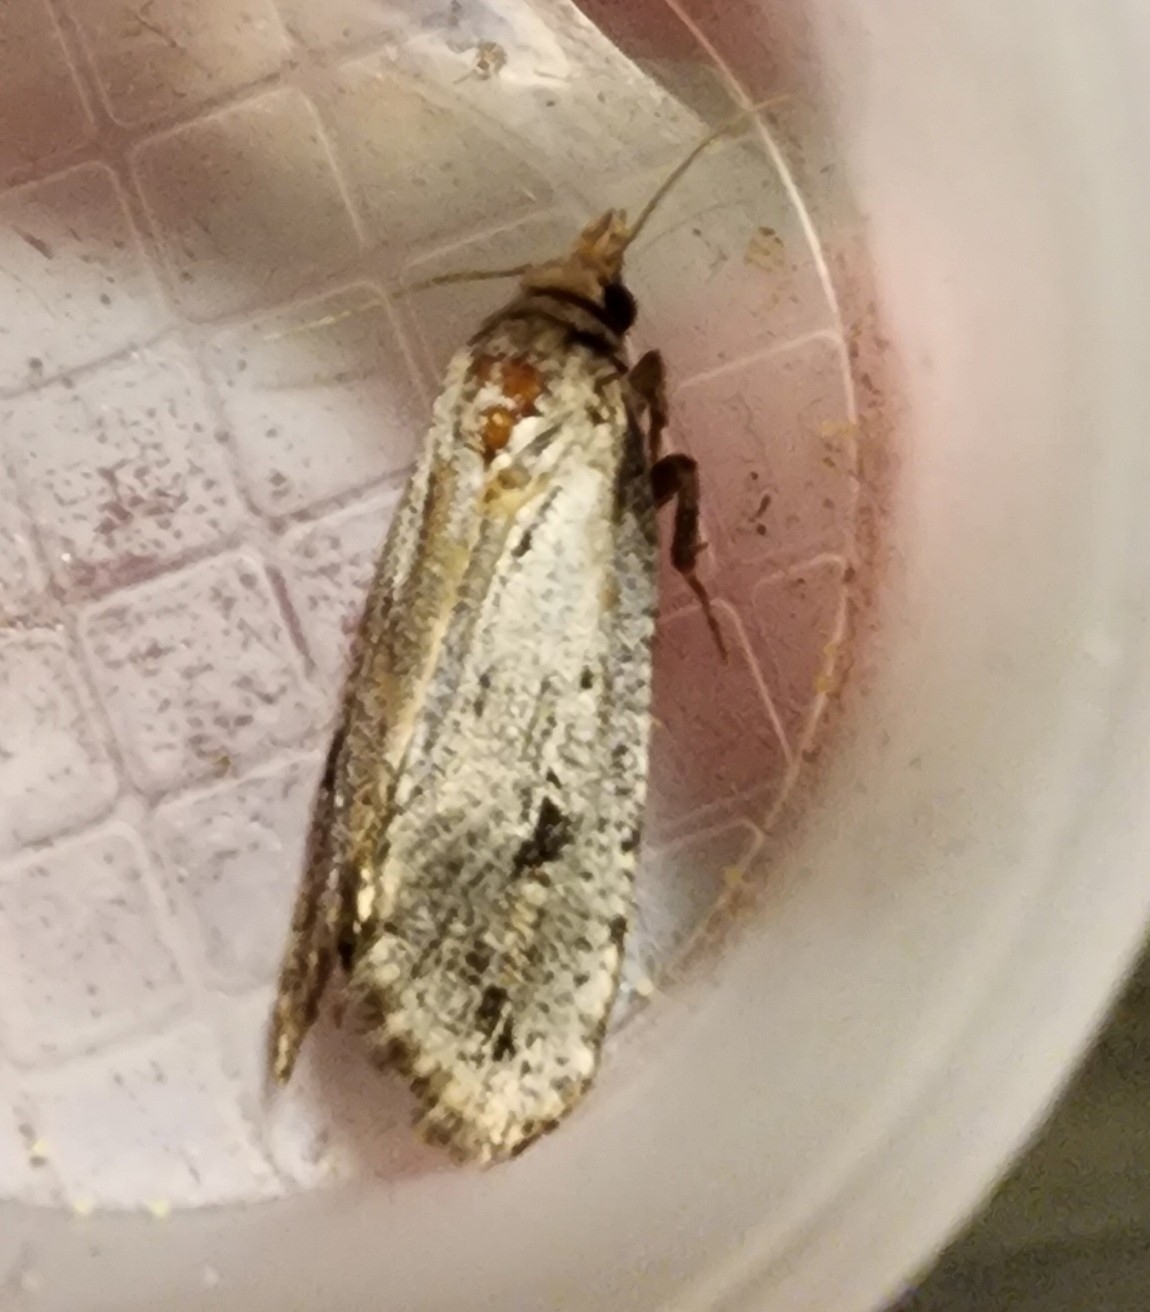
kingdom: Animalia
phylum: Arthropoda
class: Insecta
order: Lepidoptera
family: Tineidae
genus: Acrolophus
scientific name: Acrolophus popeanella
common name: Clemens' grass tubeworm moth
